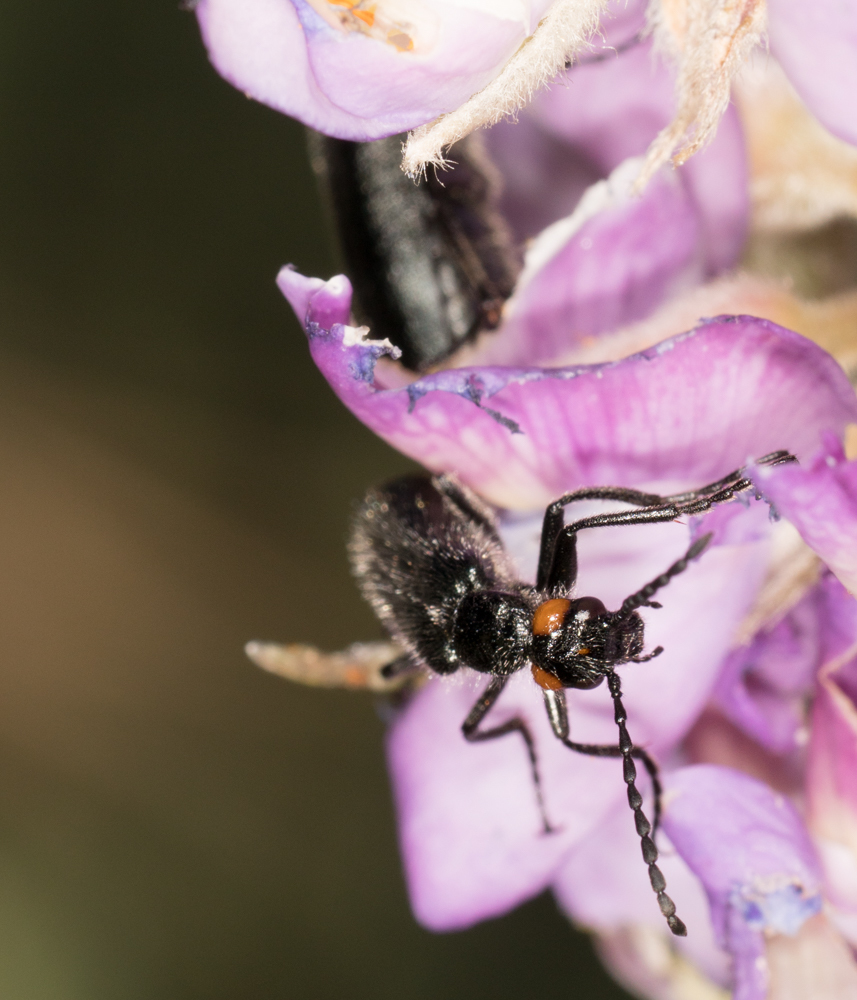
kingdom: Animalia
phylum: Arthropoda
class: Insecta
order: Coleoptera
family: Meloidae
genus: Lytta
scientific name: Lytta auriculata
